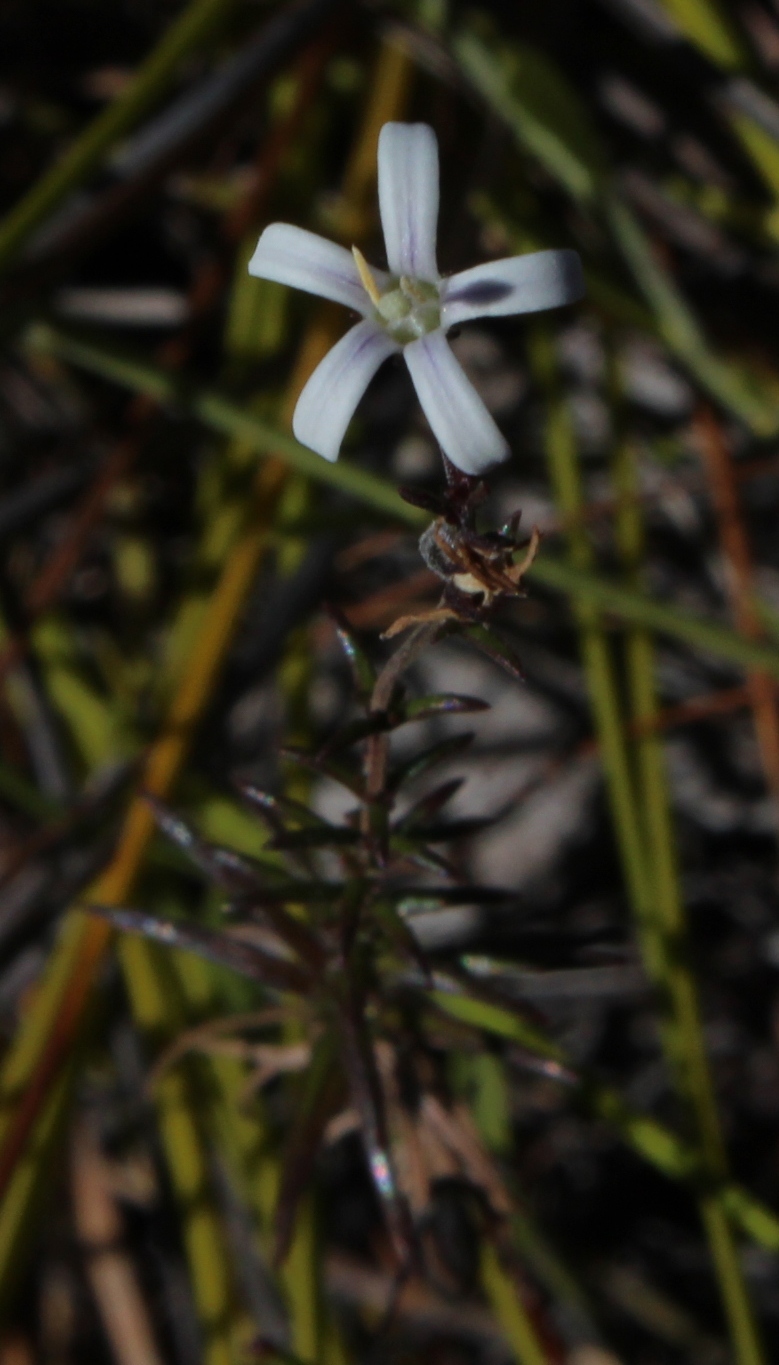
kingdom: Plantae
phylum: Tracheophyta
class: Magnoliopsida
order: Asterales
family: Campanulaceae
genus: Wahlenbergia
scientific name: Wahlenbergia longifolia
